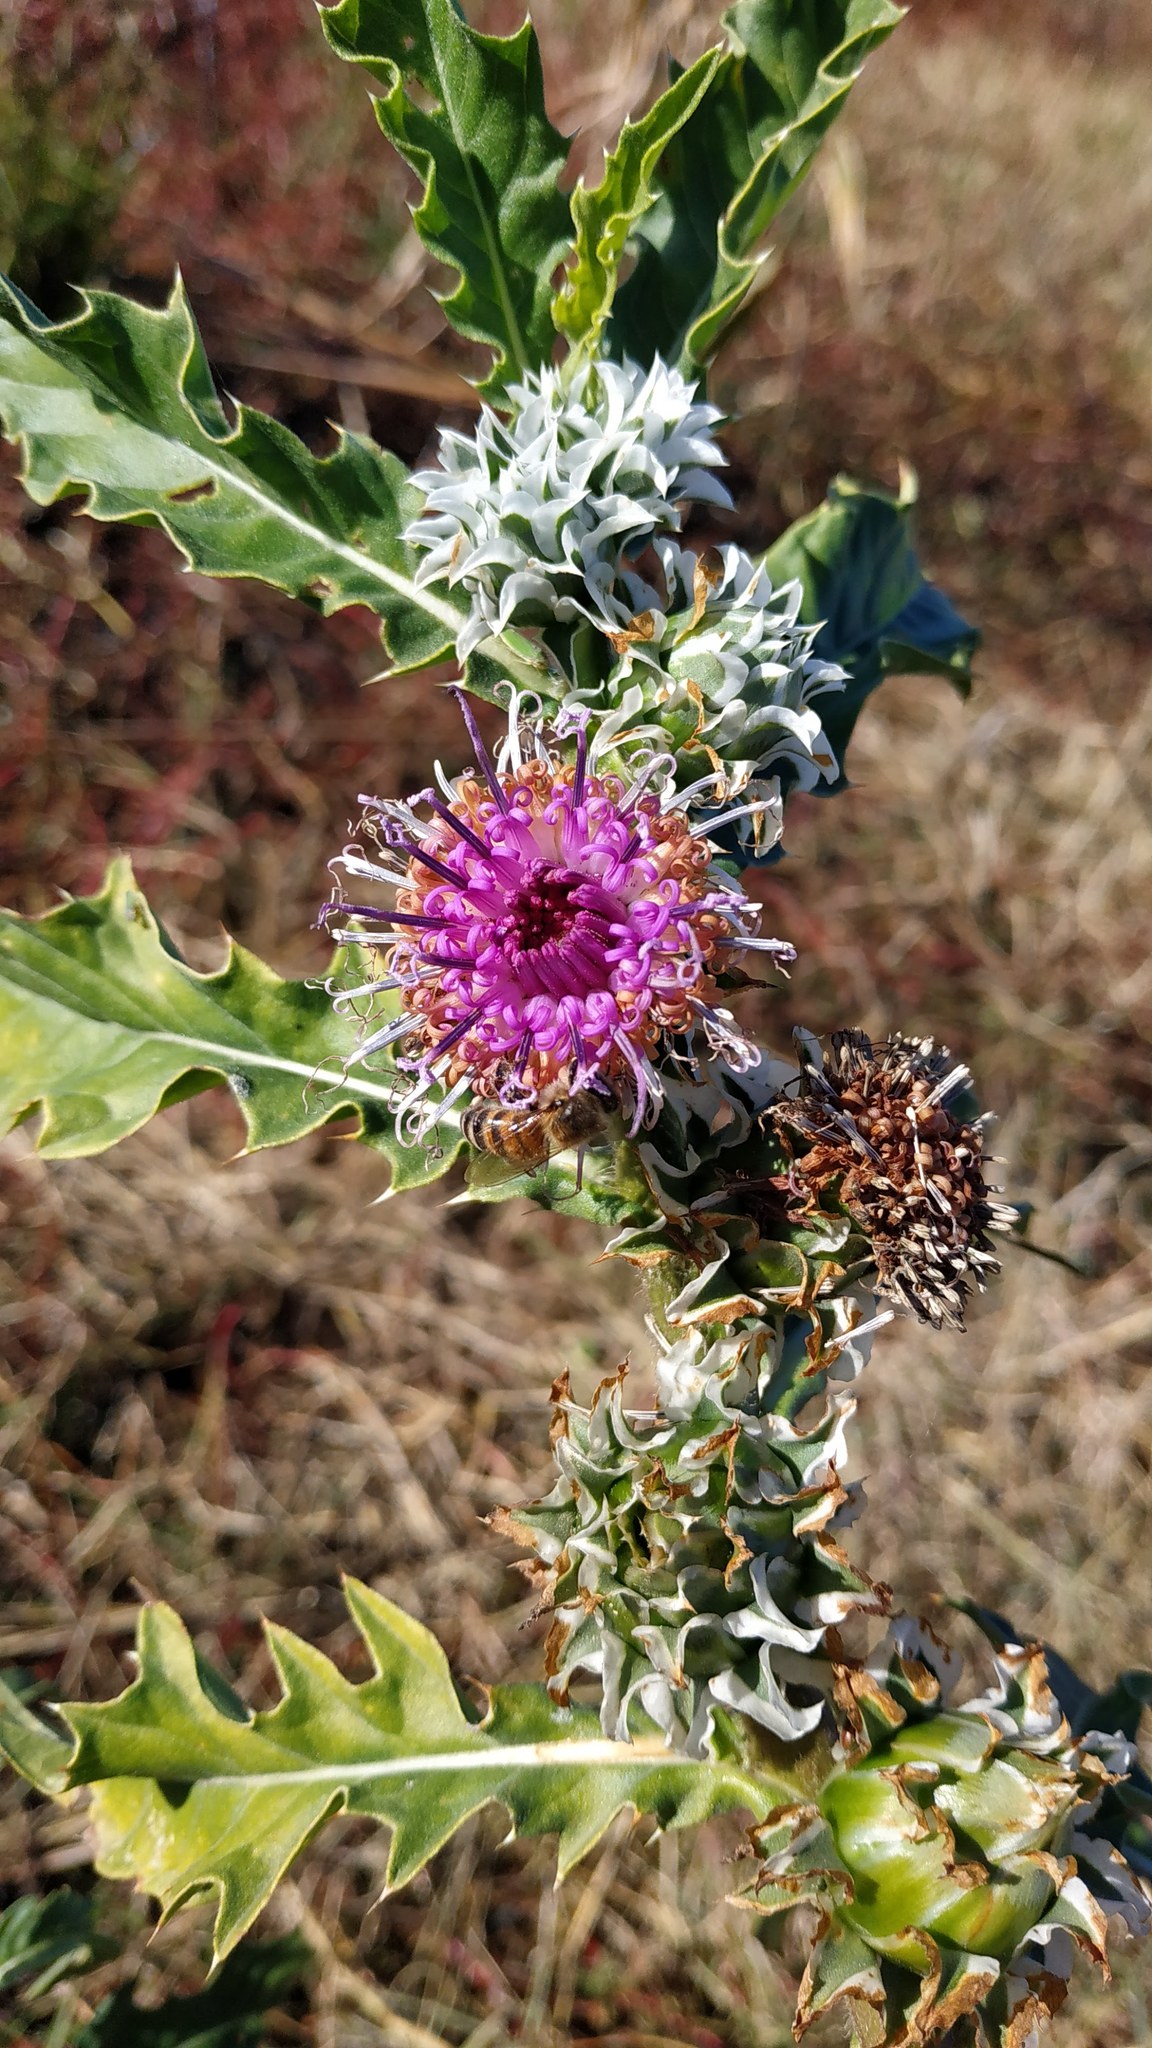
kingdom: Plantae
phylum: Tracheophyta
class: Magnoliopsida
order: Asterales
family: Asteraceae
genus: Pacourina
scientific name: Pacourina edulis
